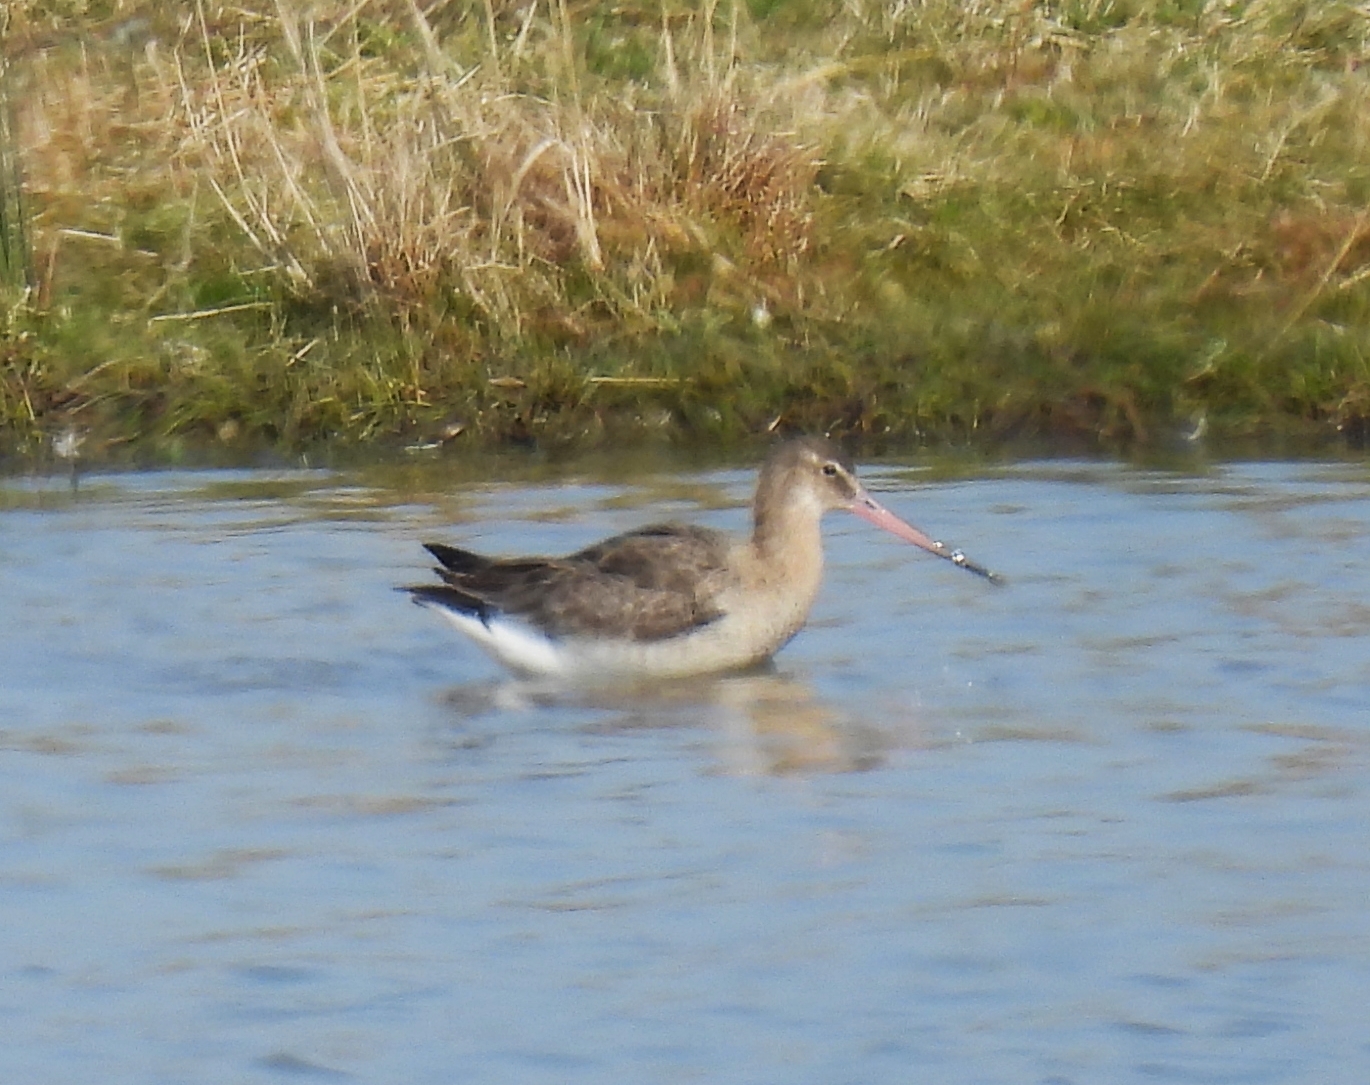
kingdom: Animalia
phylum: Chordata
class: Aves
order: Charadriiformes
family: Scolopacidae
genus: Limosa
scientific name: Limosa limosa
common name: Black-tailed godwit
